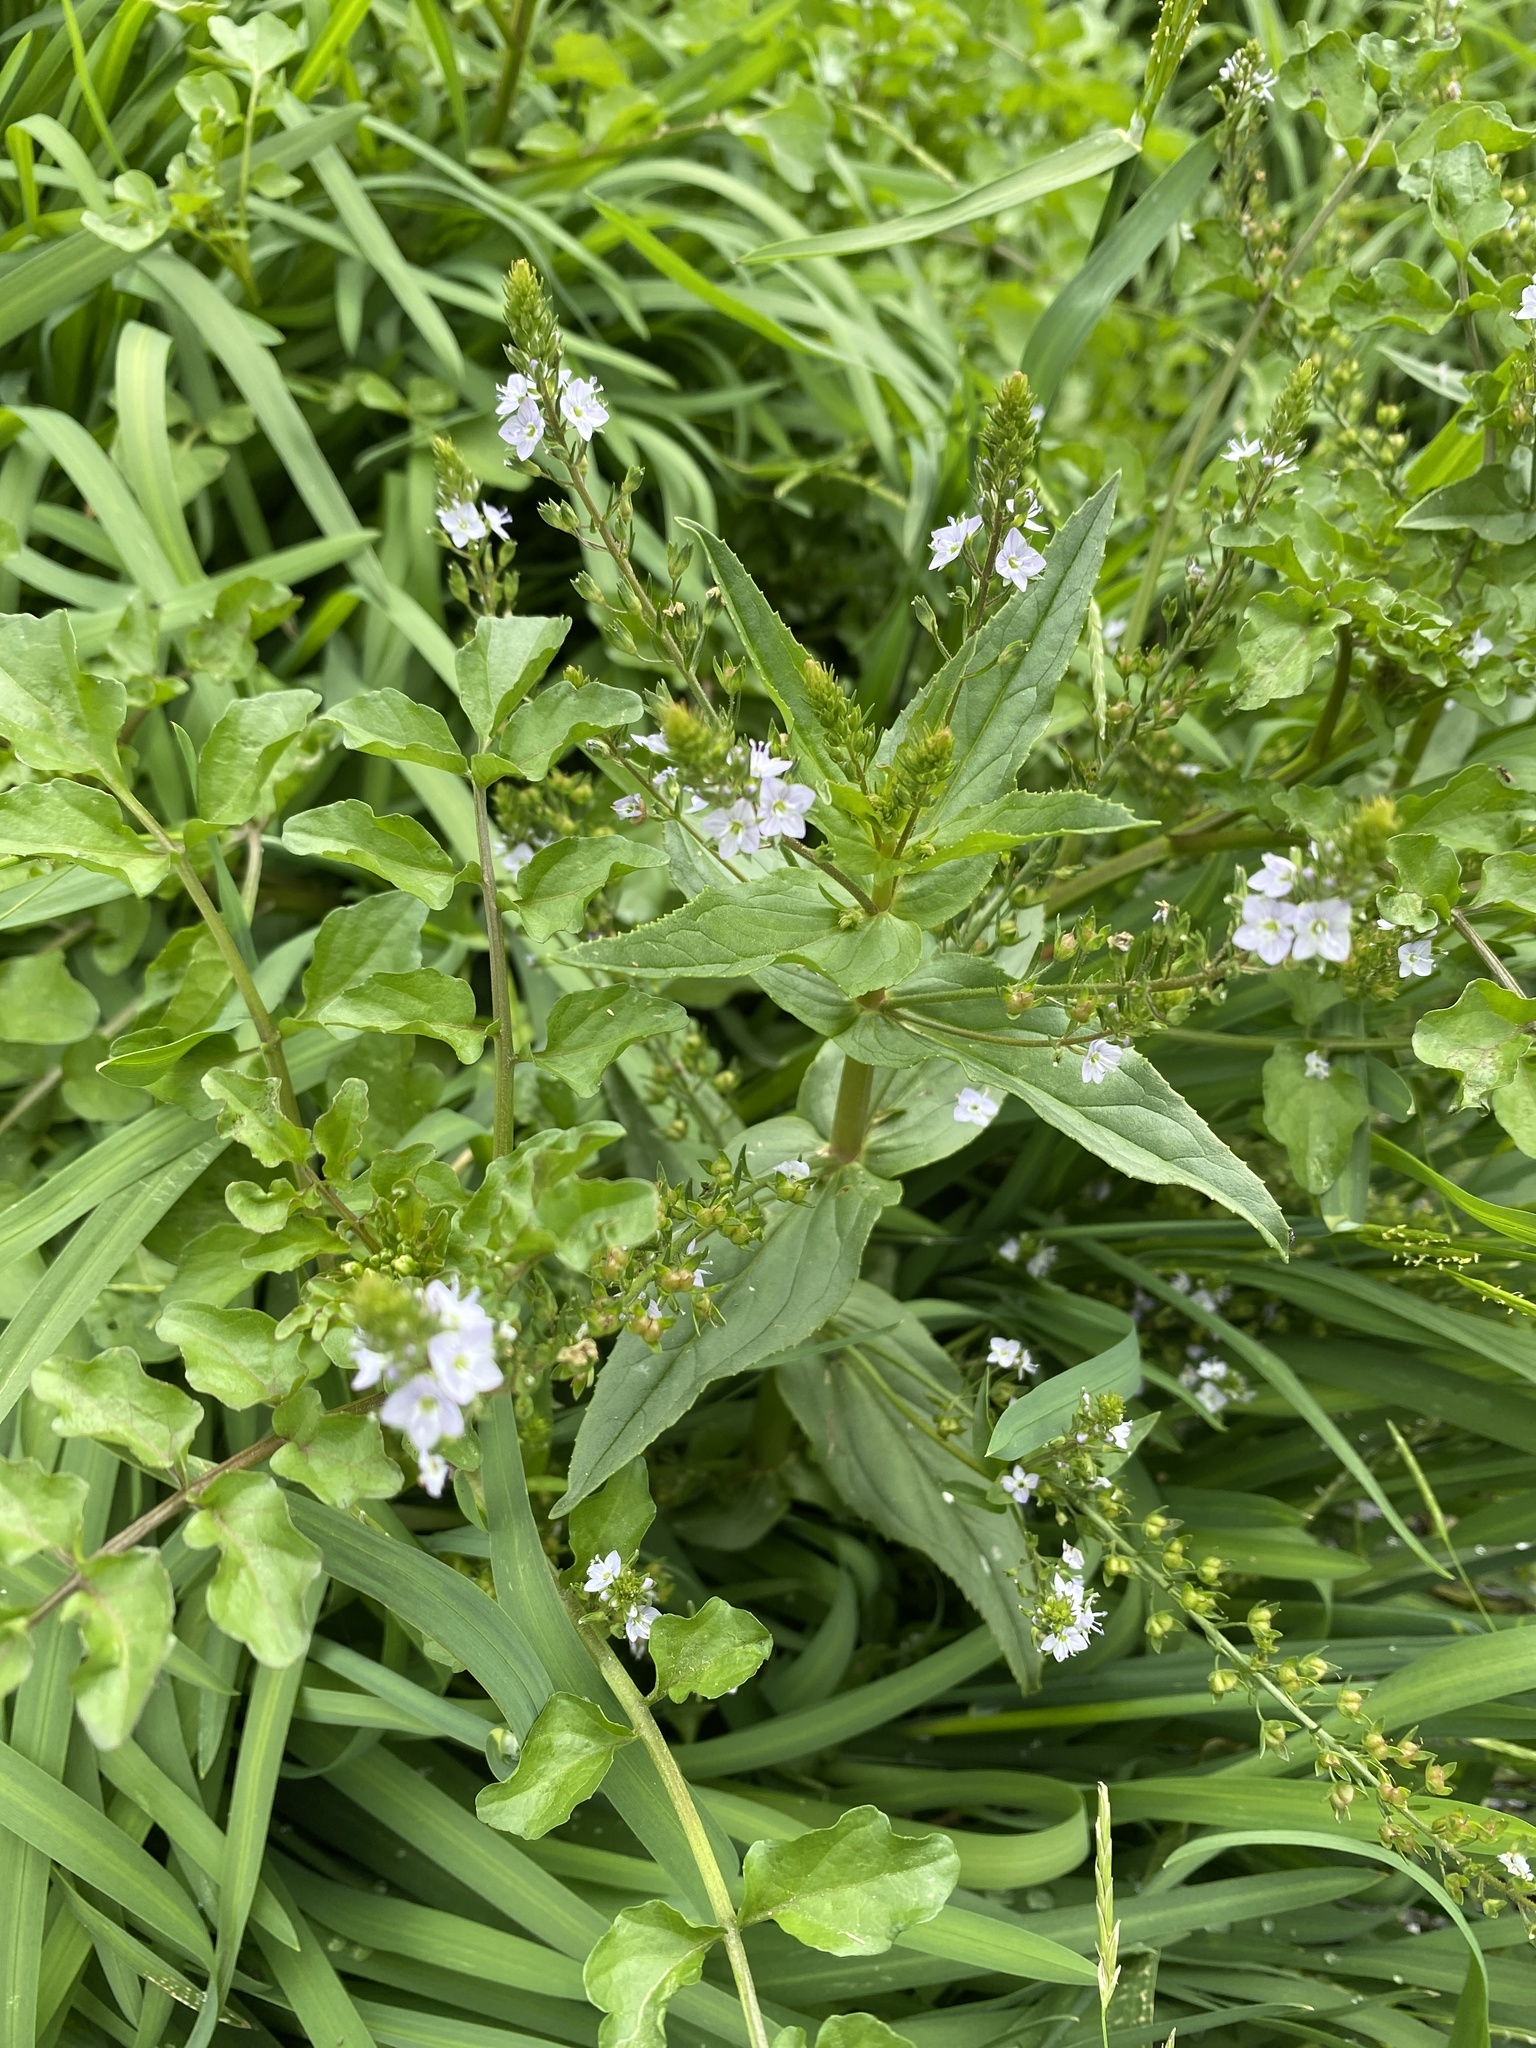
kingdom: Plantae
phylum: Tracheophyta
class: Magnoliopsida
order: Lamiales
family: Plantaginaceae
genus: Veronica
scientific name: Veronica anagallis-aquatica
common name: Water speedwell
